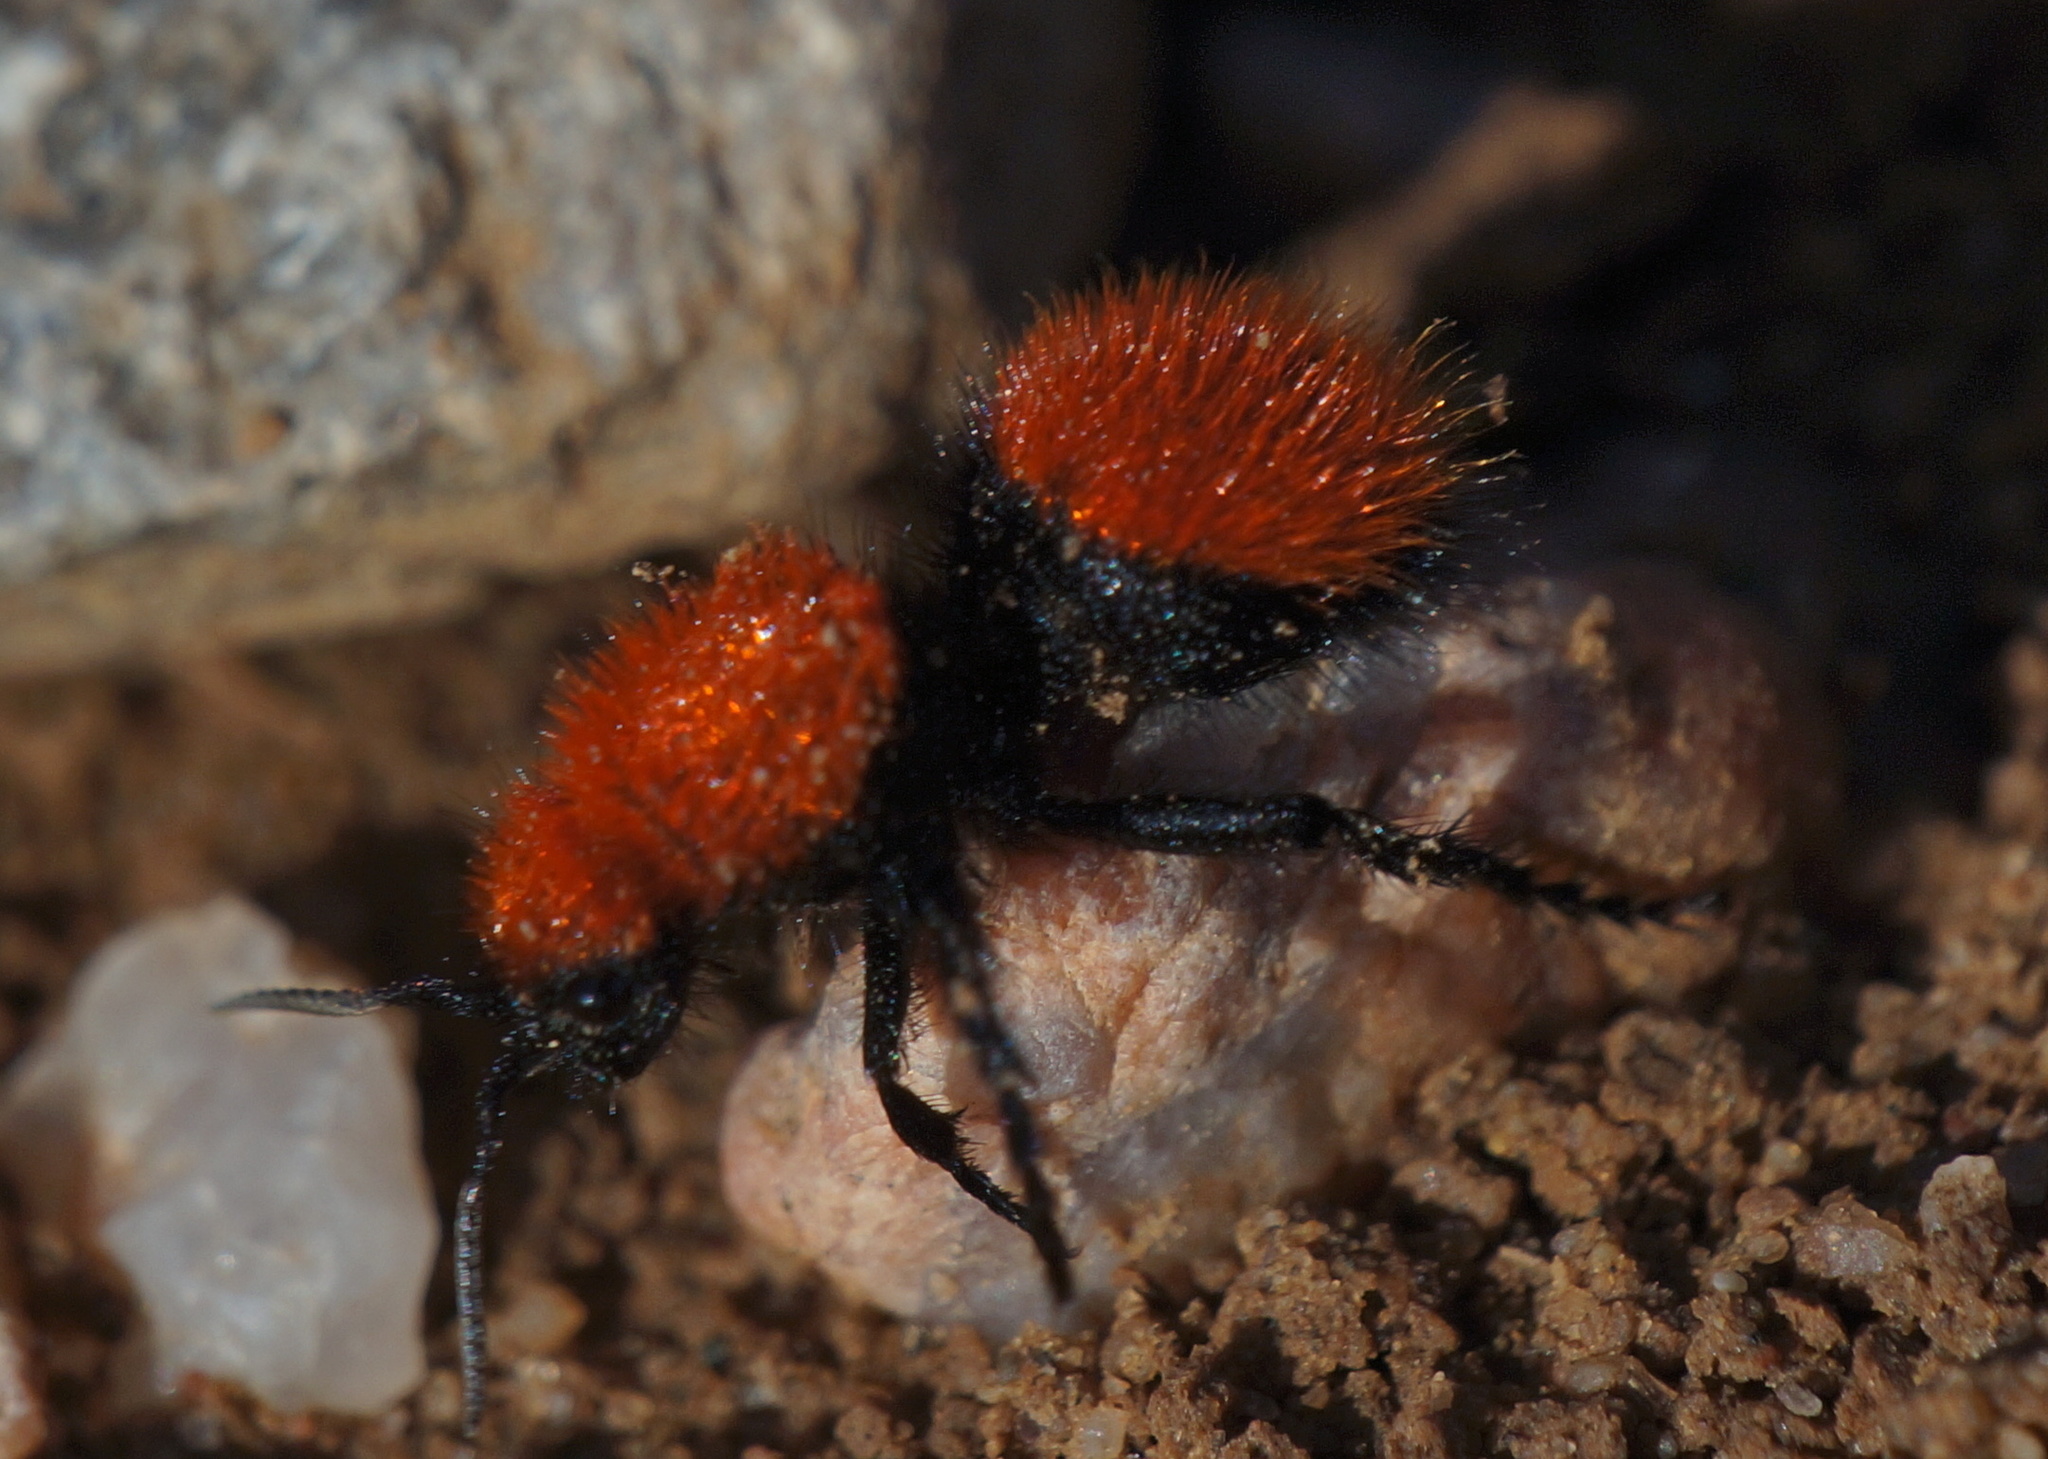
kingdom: Animalia
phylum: Arthropoda
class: Insecta
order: Hymenoptera
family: Mutillidae
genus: Dasymutilla
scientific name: Dasymutilla vestita
